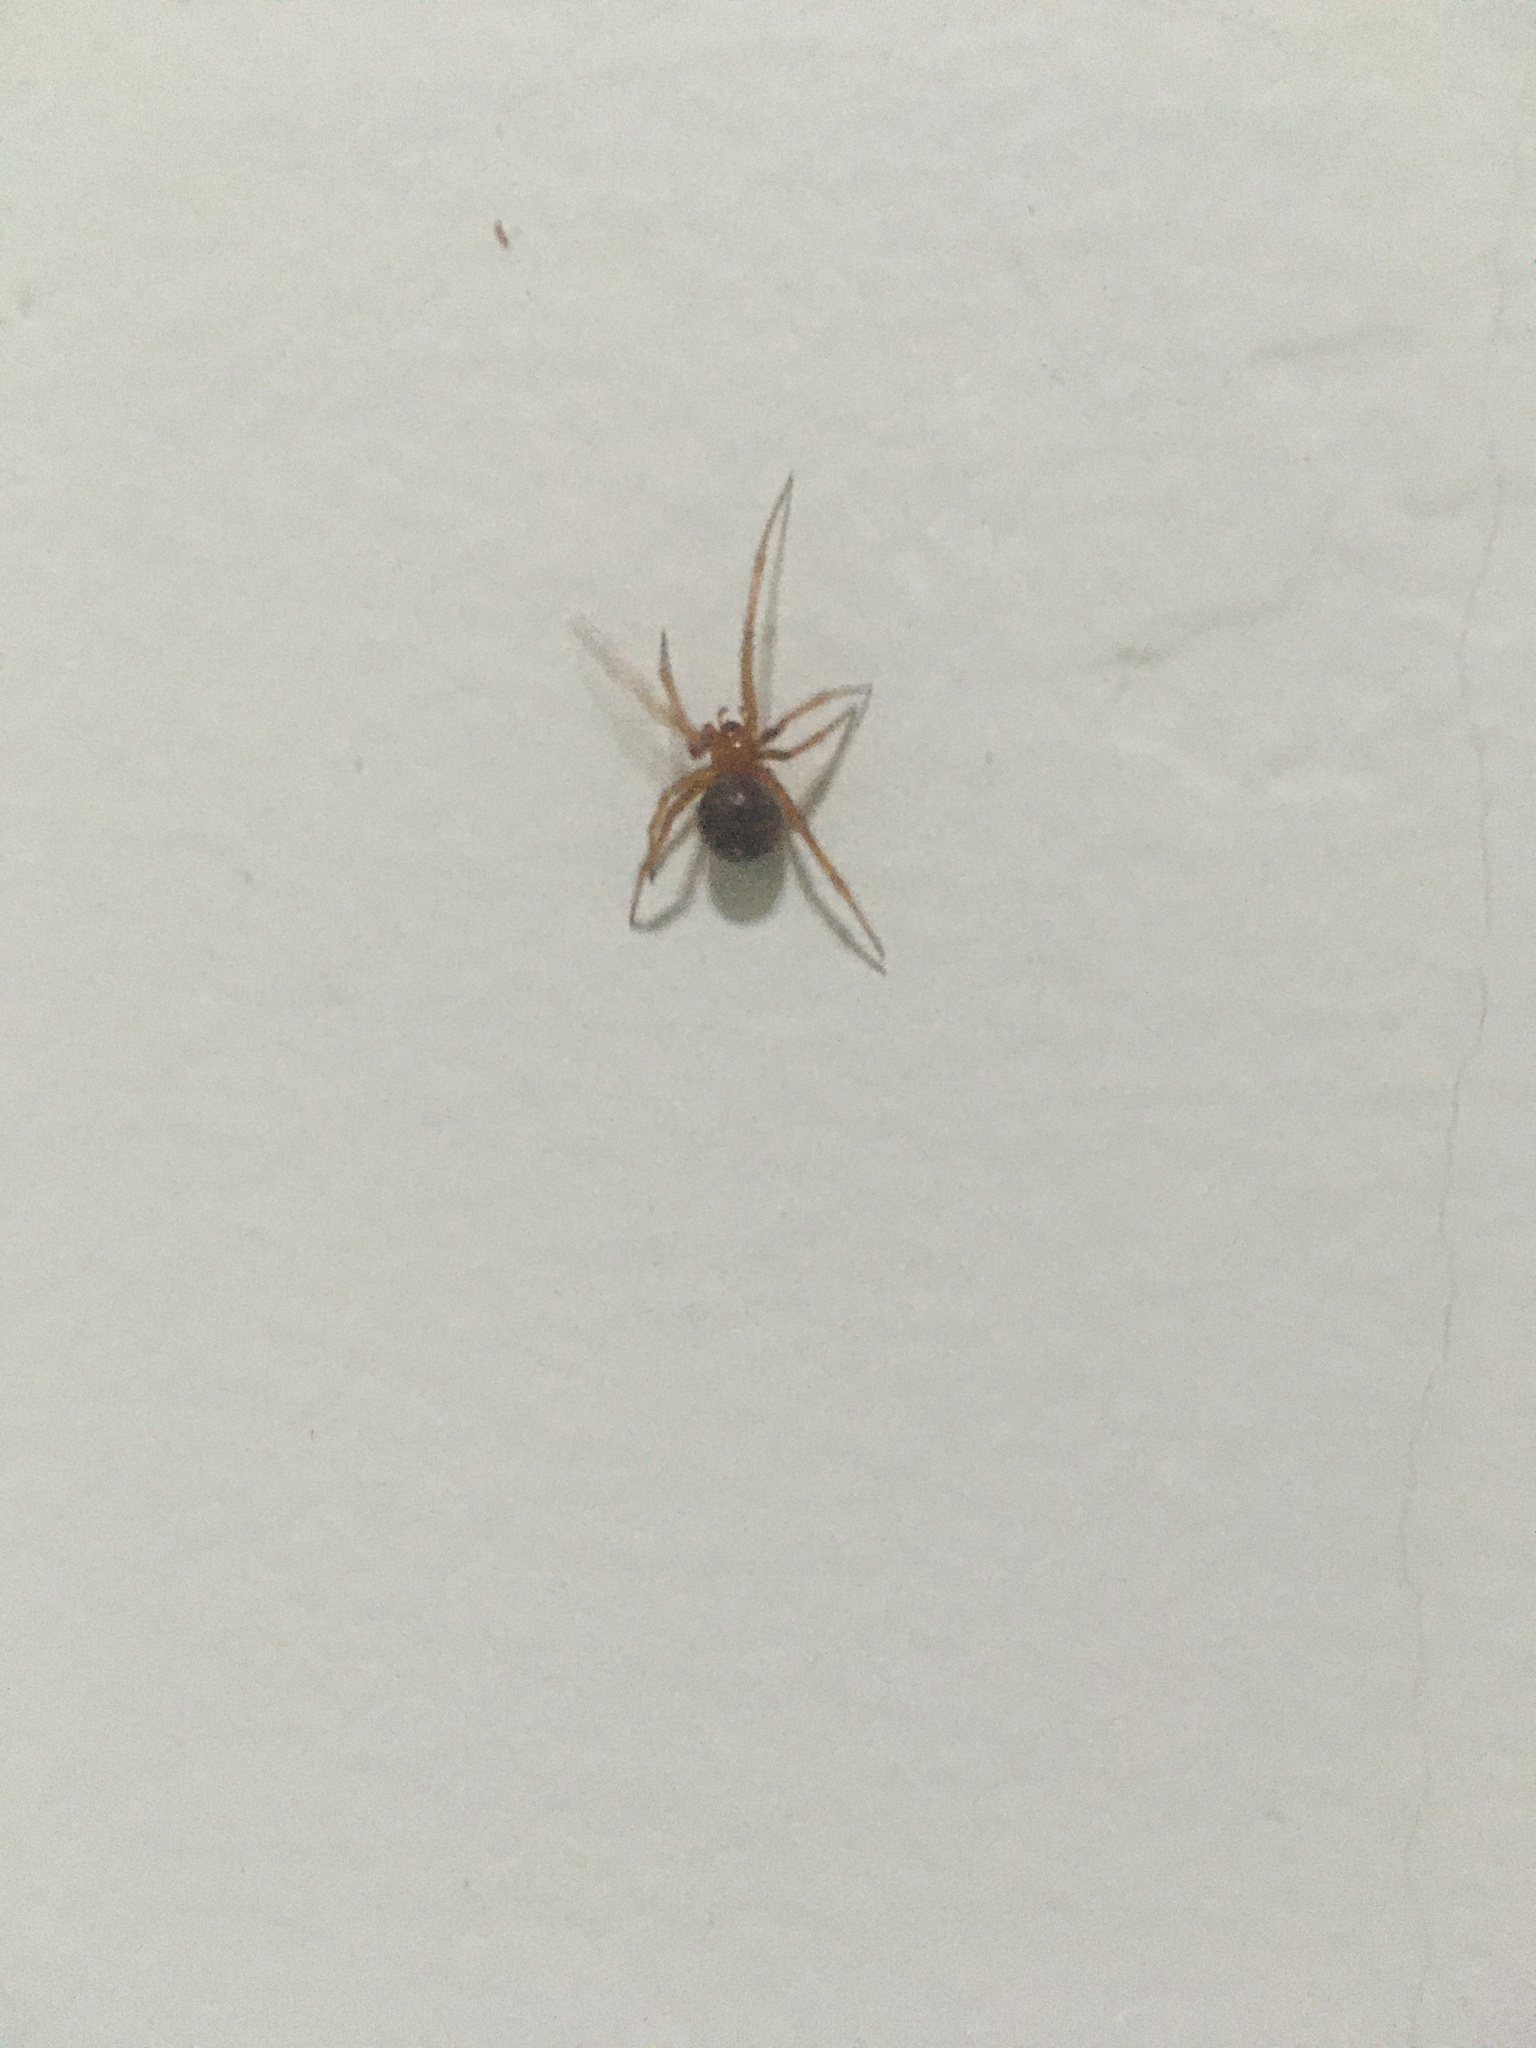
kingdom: Animalia
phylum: Arthropoda
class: Arachnida
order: Araneae
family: Theridiidae
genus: Nesticodes
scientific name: Nesticodes rufipes
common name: Cobweb spiders
